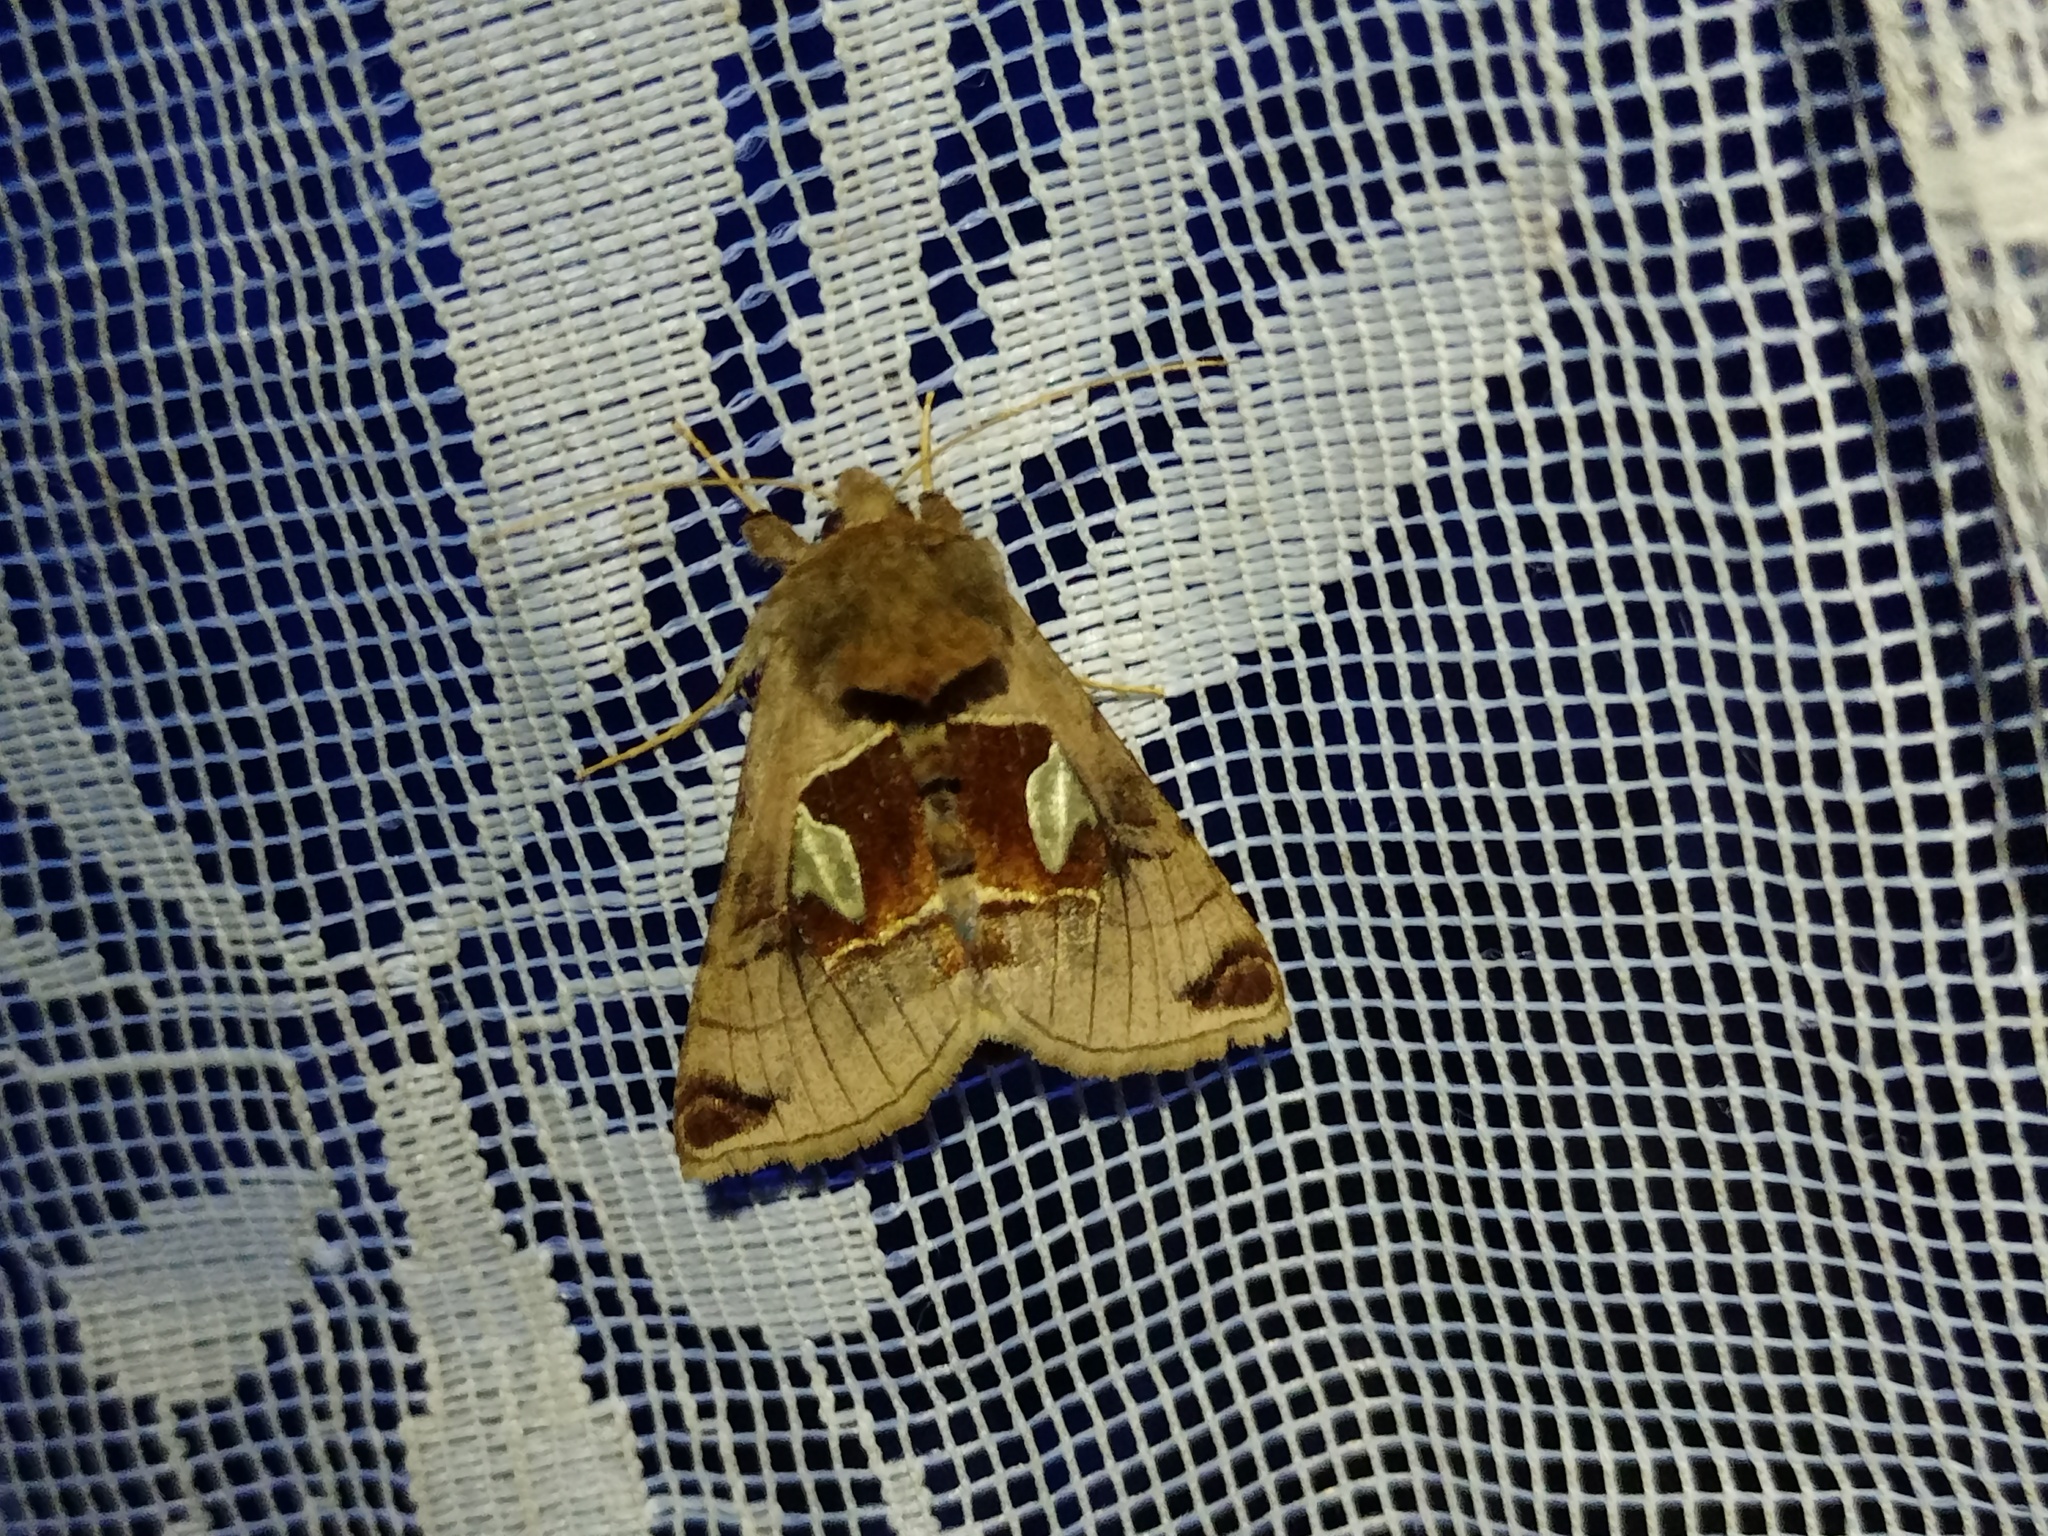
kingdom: Animalia
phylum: Arthropoda
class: Insecta
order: Lepidoptera
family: Noctuidae
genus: Autographa
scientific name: Autographa aemula
